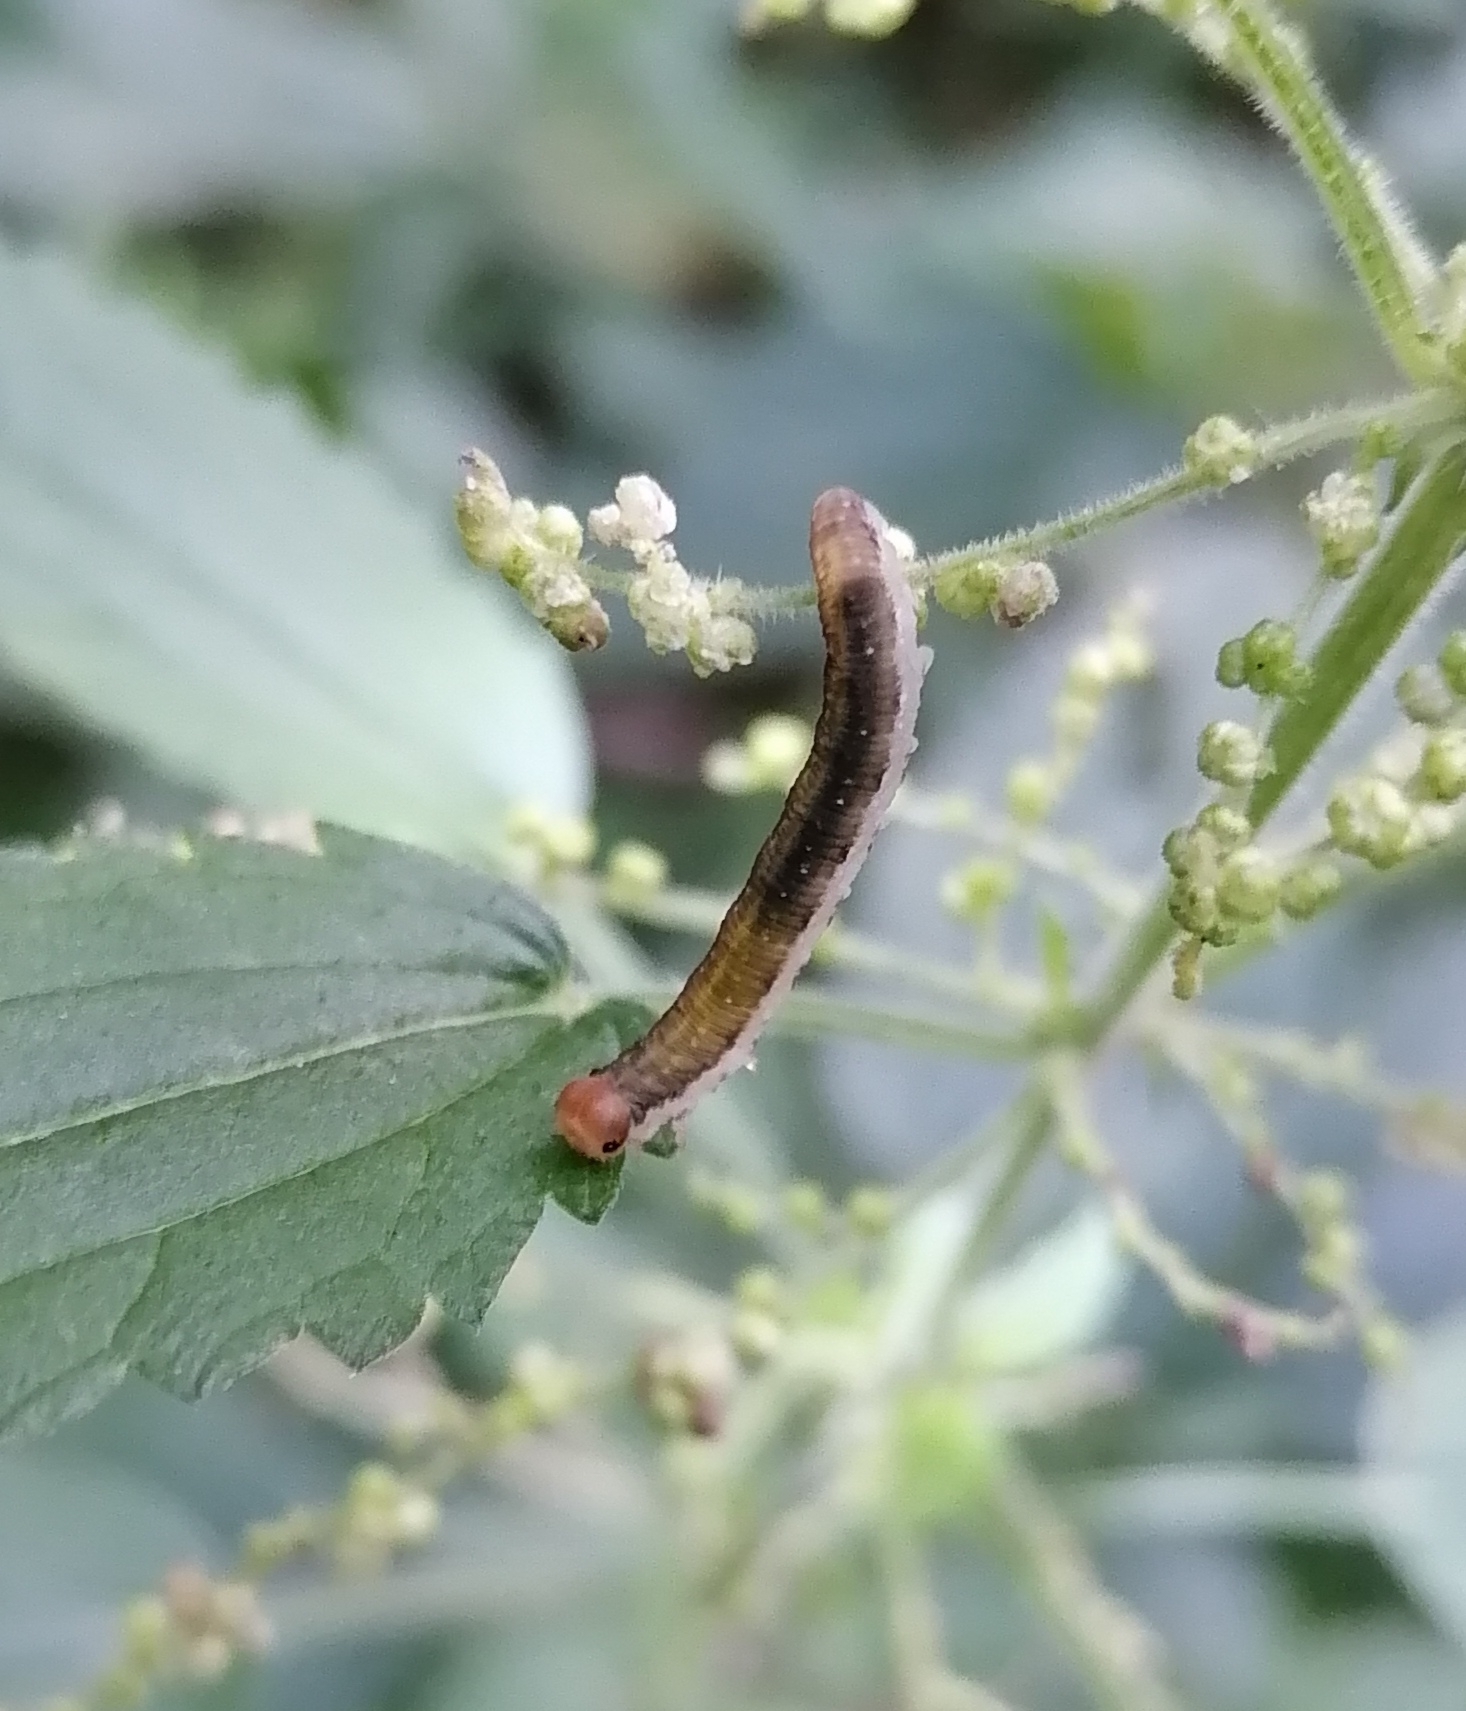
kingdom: Animalia
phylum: Arthropoda
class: Insecta
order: Hymenoptera
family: Tenthredinidae
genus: Pachyprotasis
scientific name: Pachyprotasis antennata
